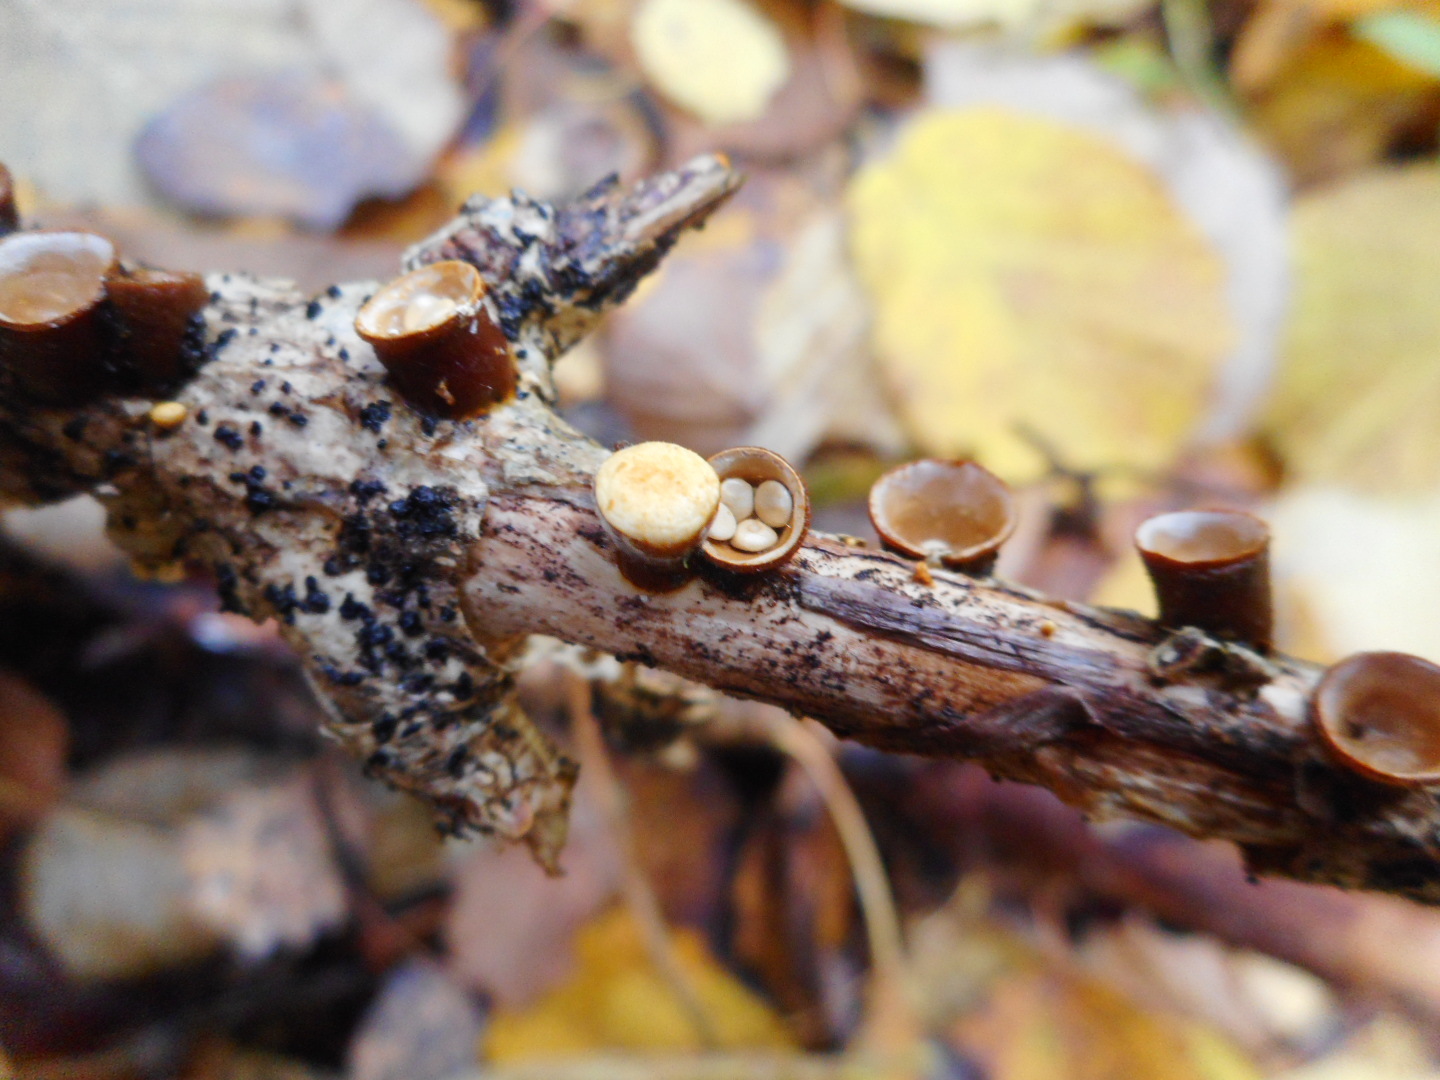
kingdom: Fungi
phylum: Basidiomycota
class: Agaricomycetes
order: Agaricales
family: Nidulariaceae
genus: Crucibulum
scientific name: Crucibulum laeve
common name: Common bird's nest
